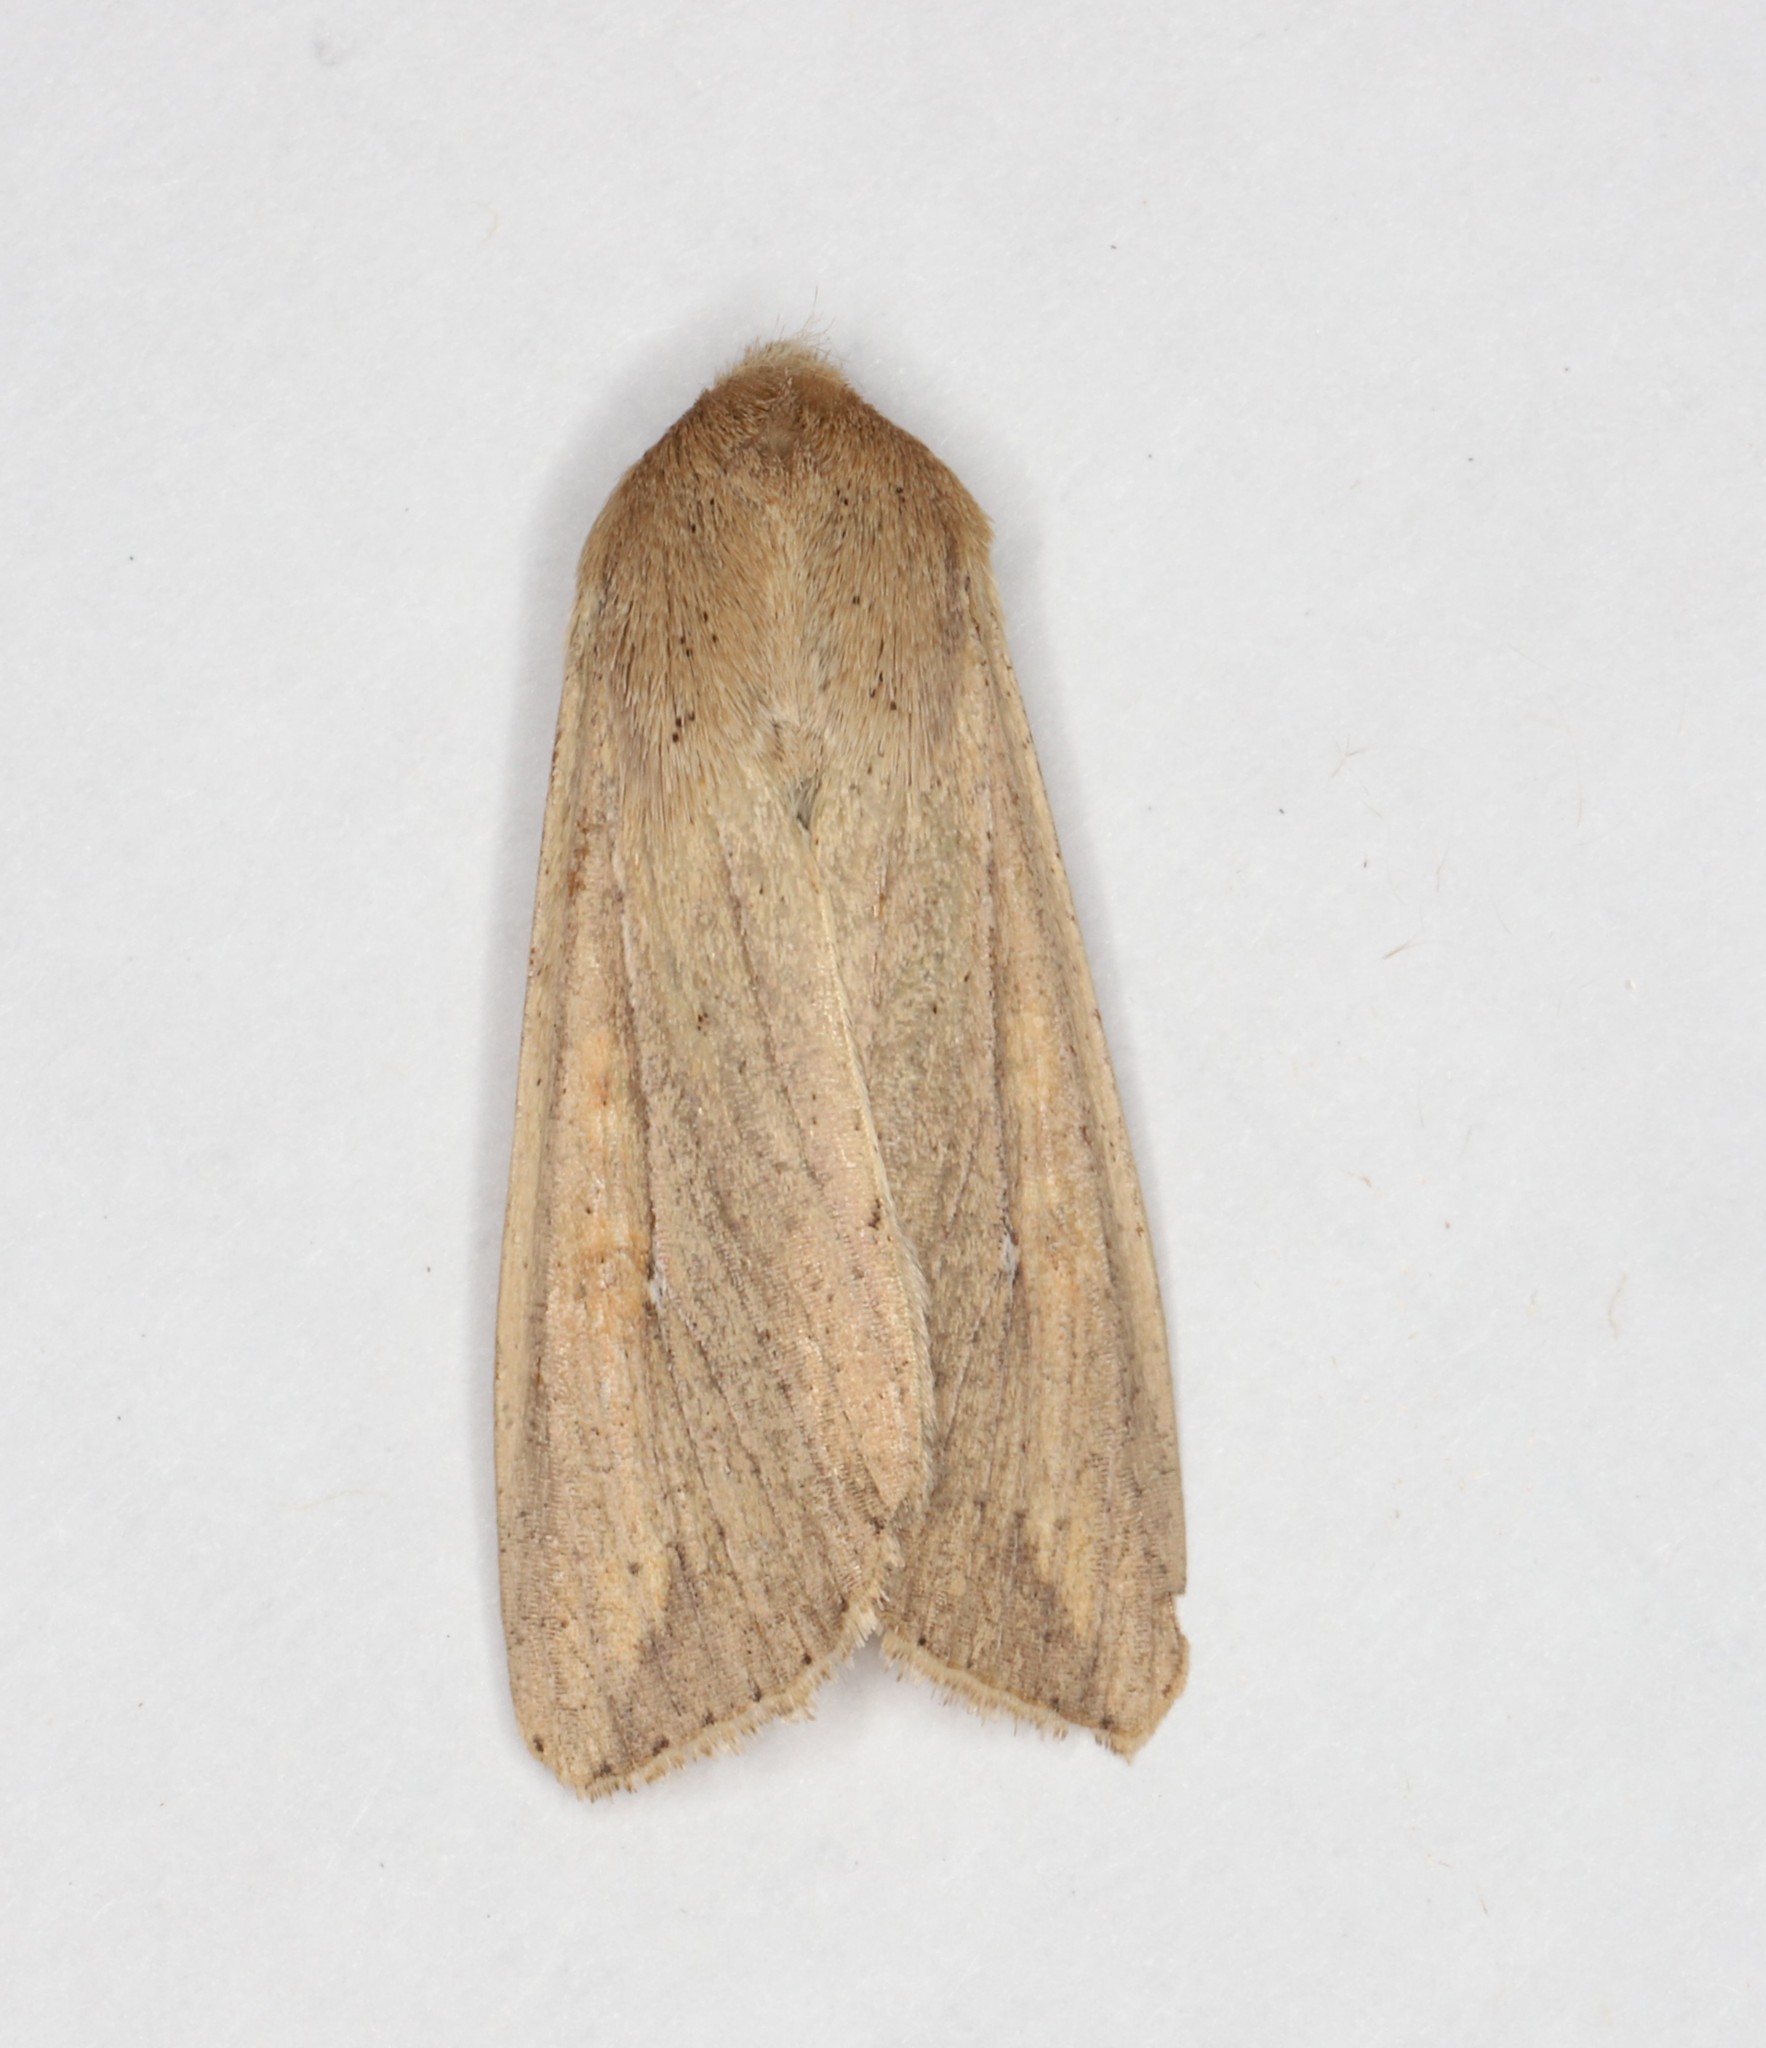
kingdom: Animalia
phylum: Arthropoda
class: Insecta
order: Lepidoptera
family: Noctuidae
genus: Mythimna
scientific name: Mythimna unipuncta
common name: White-speck
